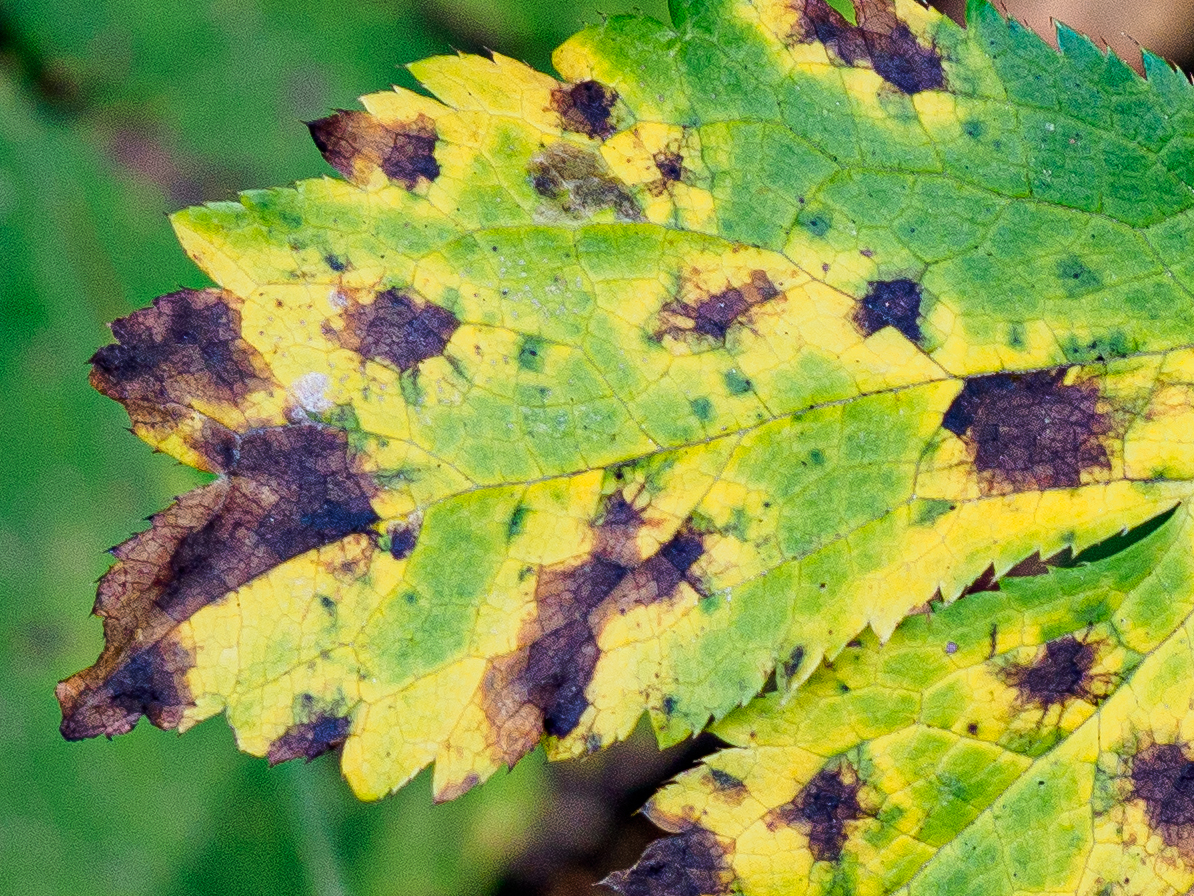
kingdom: Fungi
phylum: Ascomycota
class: Leotiomycetes
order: Helotiales
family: Drepanopezizaceae
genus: Leptotrochila
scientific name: Leptotrochila astrantiae
